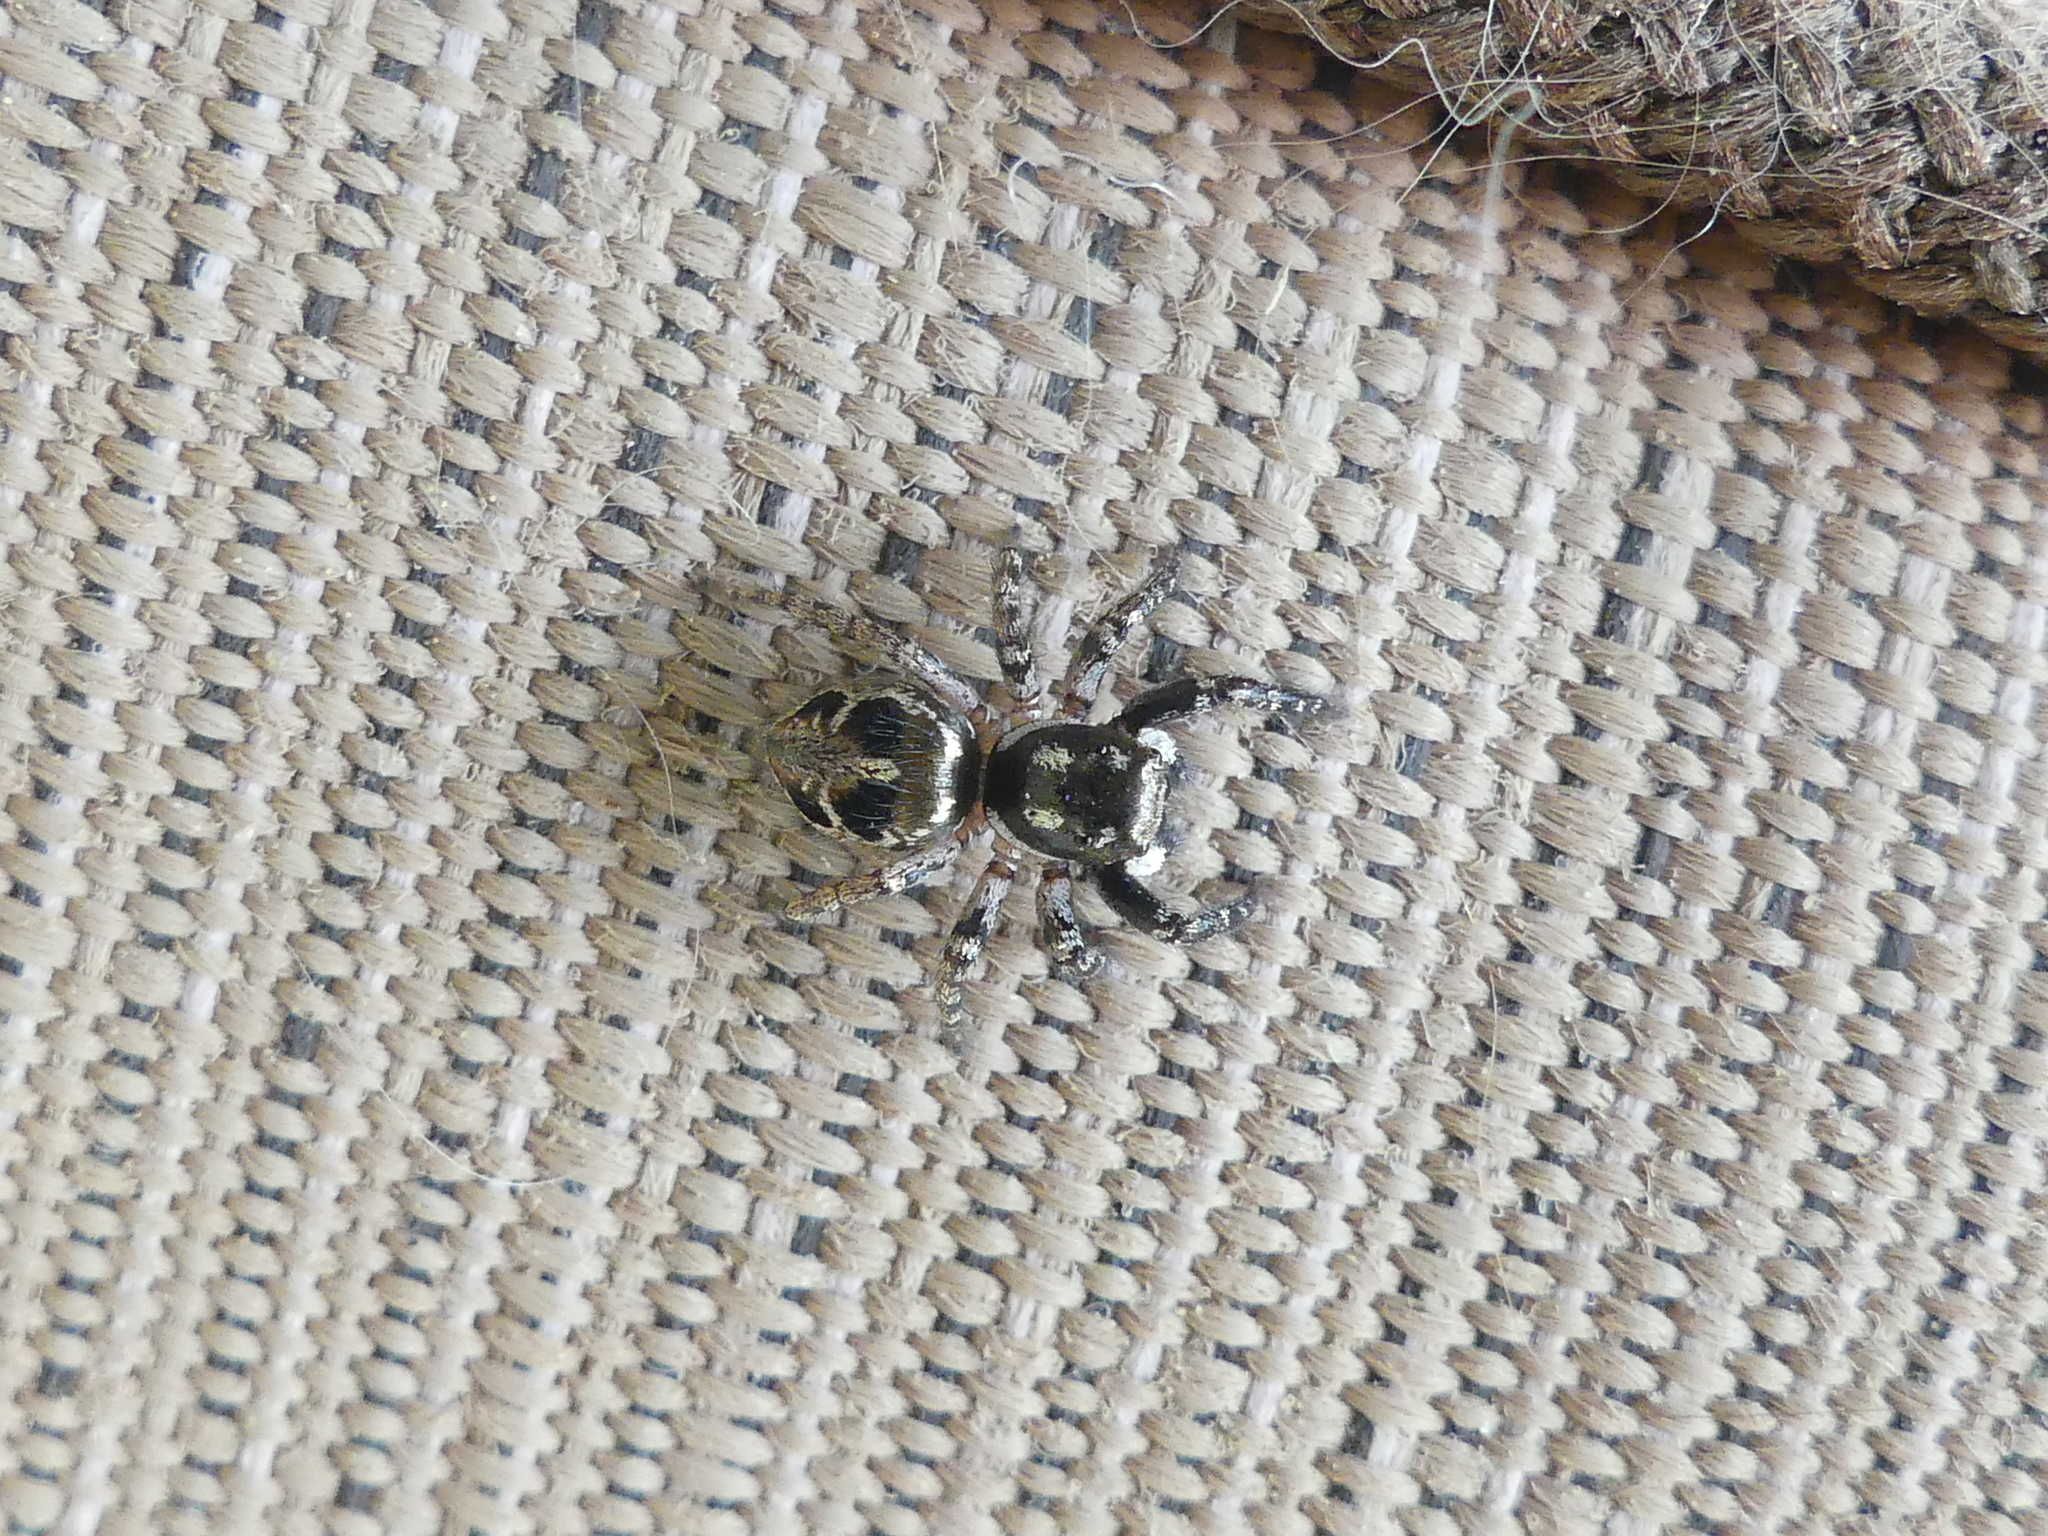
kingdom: Animalia
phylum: Arthropoda
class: Arachnida
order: Araneae
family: Salticidae
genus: Anasaitis
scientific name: Anasaitis canosa
